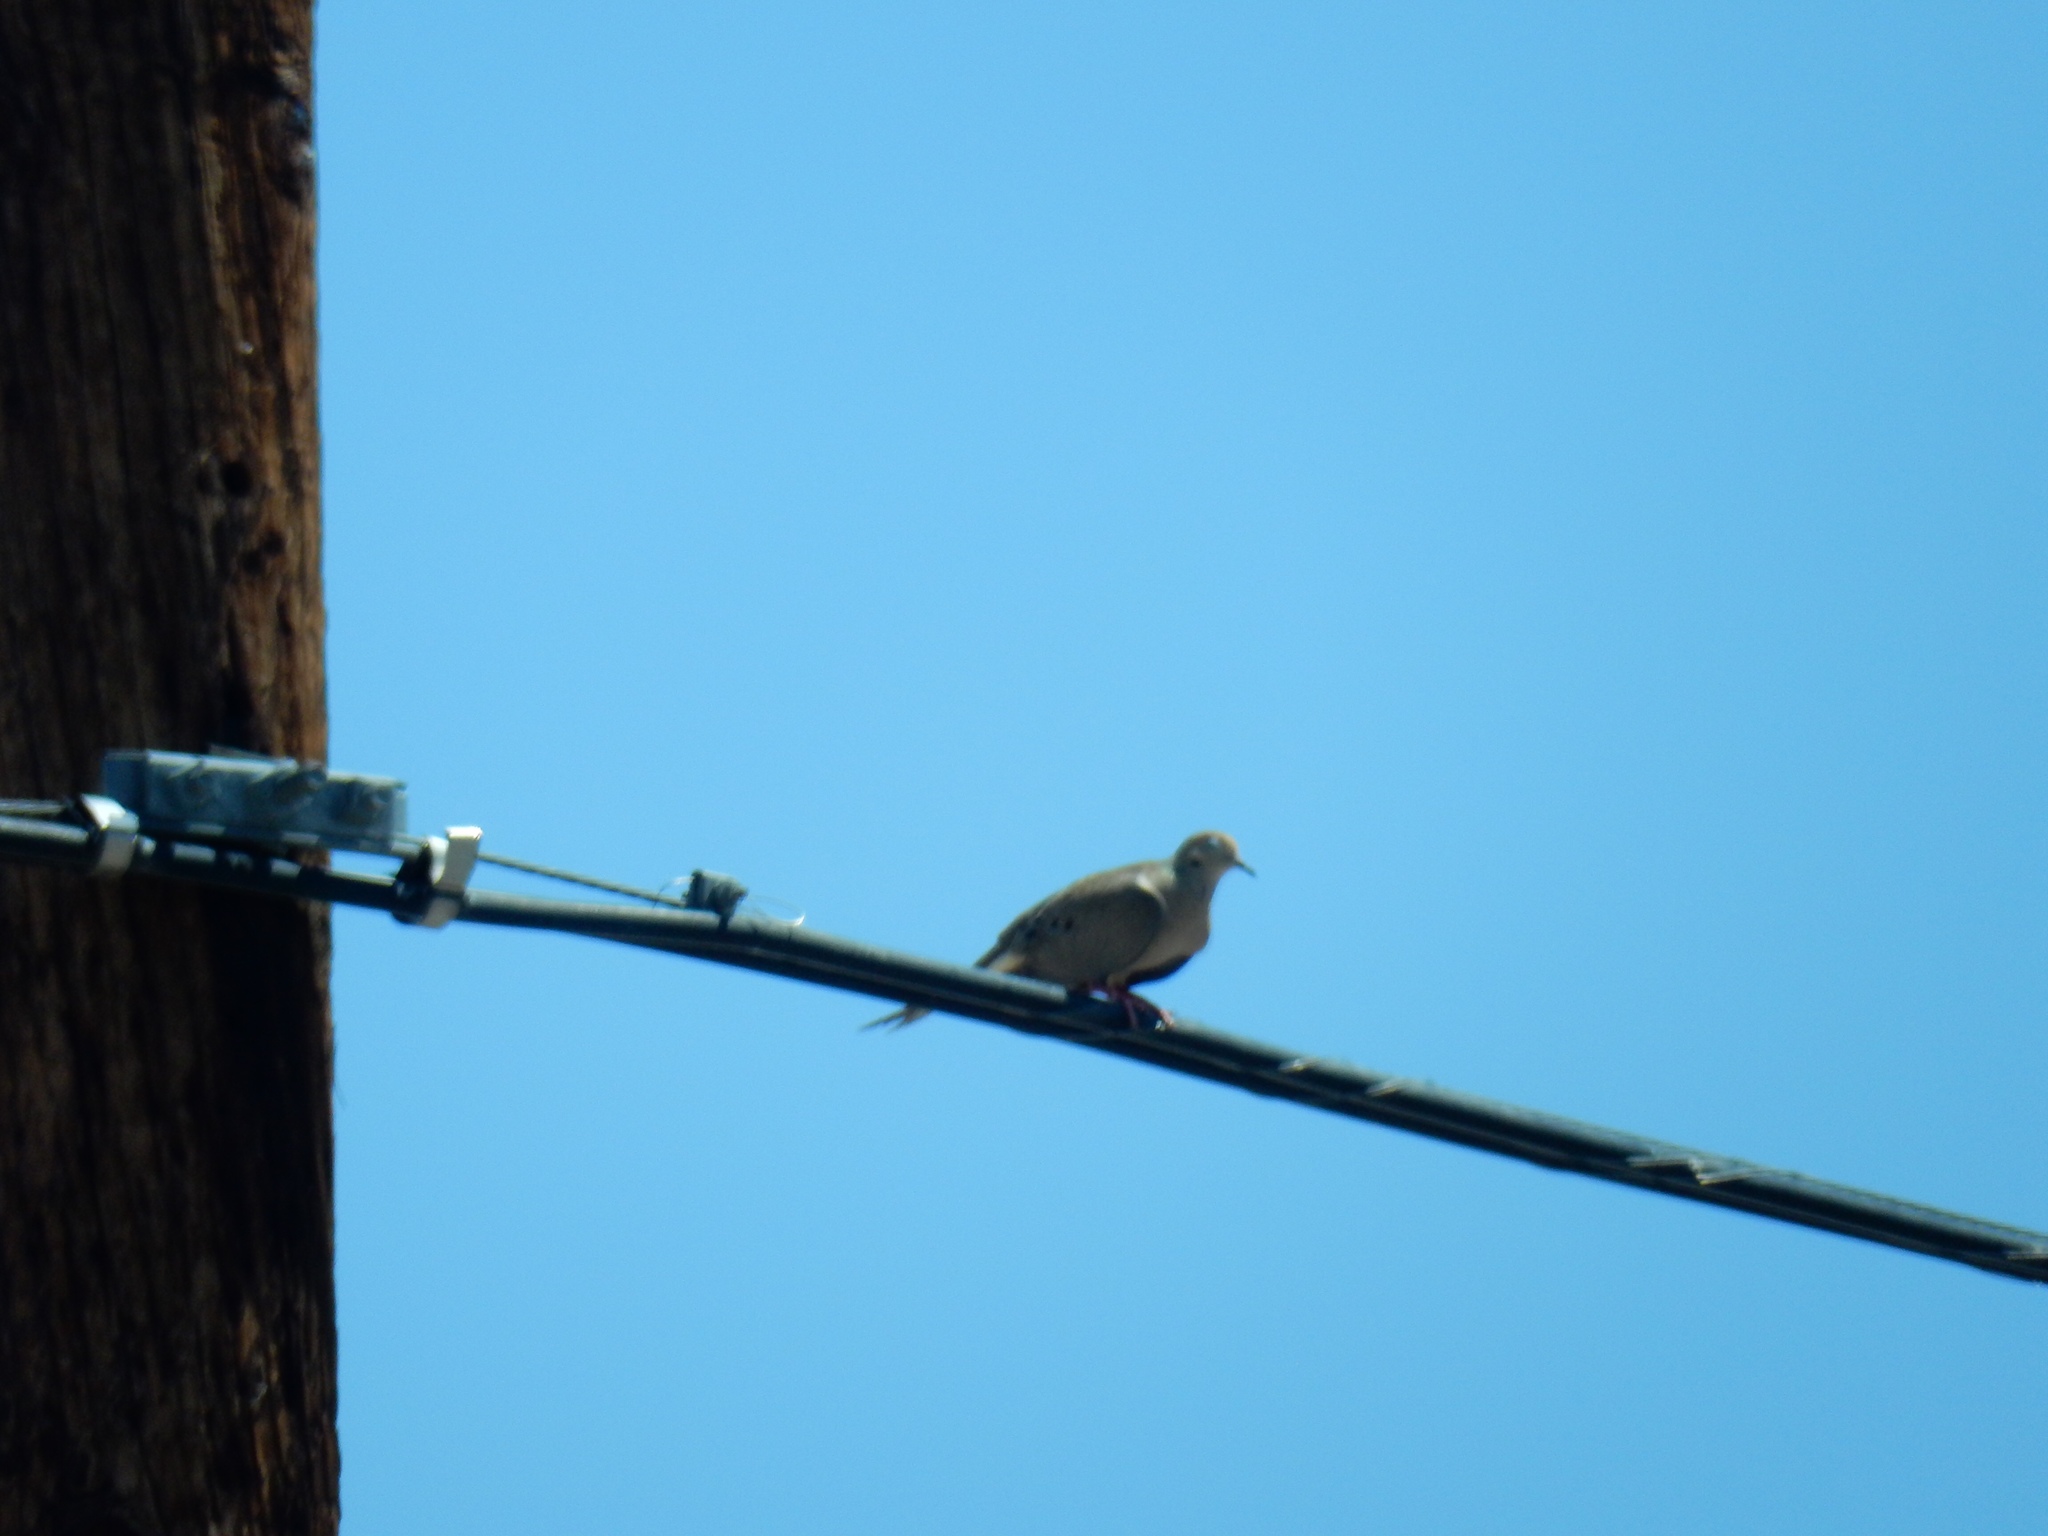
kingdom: Animalia
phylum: Chordata
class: Aves
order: Columbiformes
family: Columbidae
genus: Zenaida
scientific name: Zenaida macroura
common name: Mourning dove
